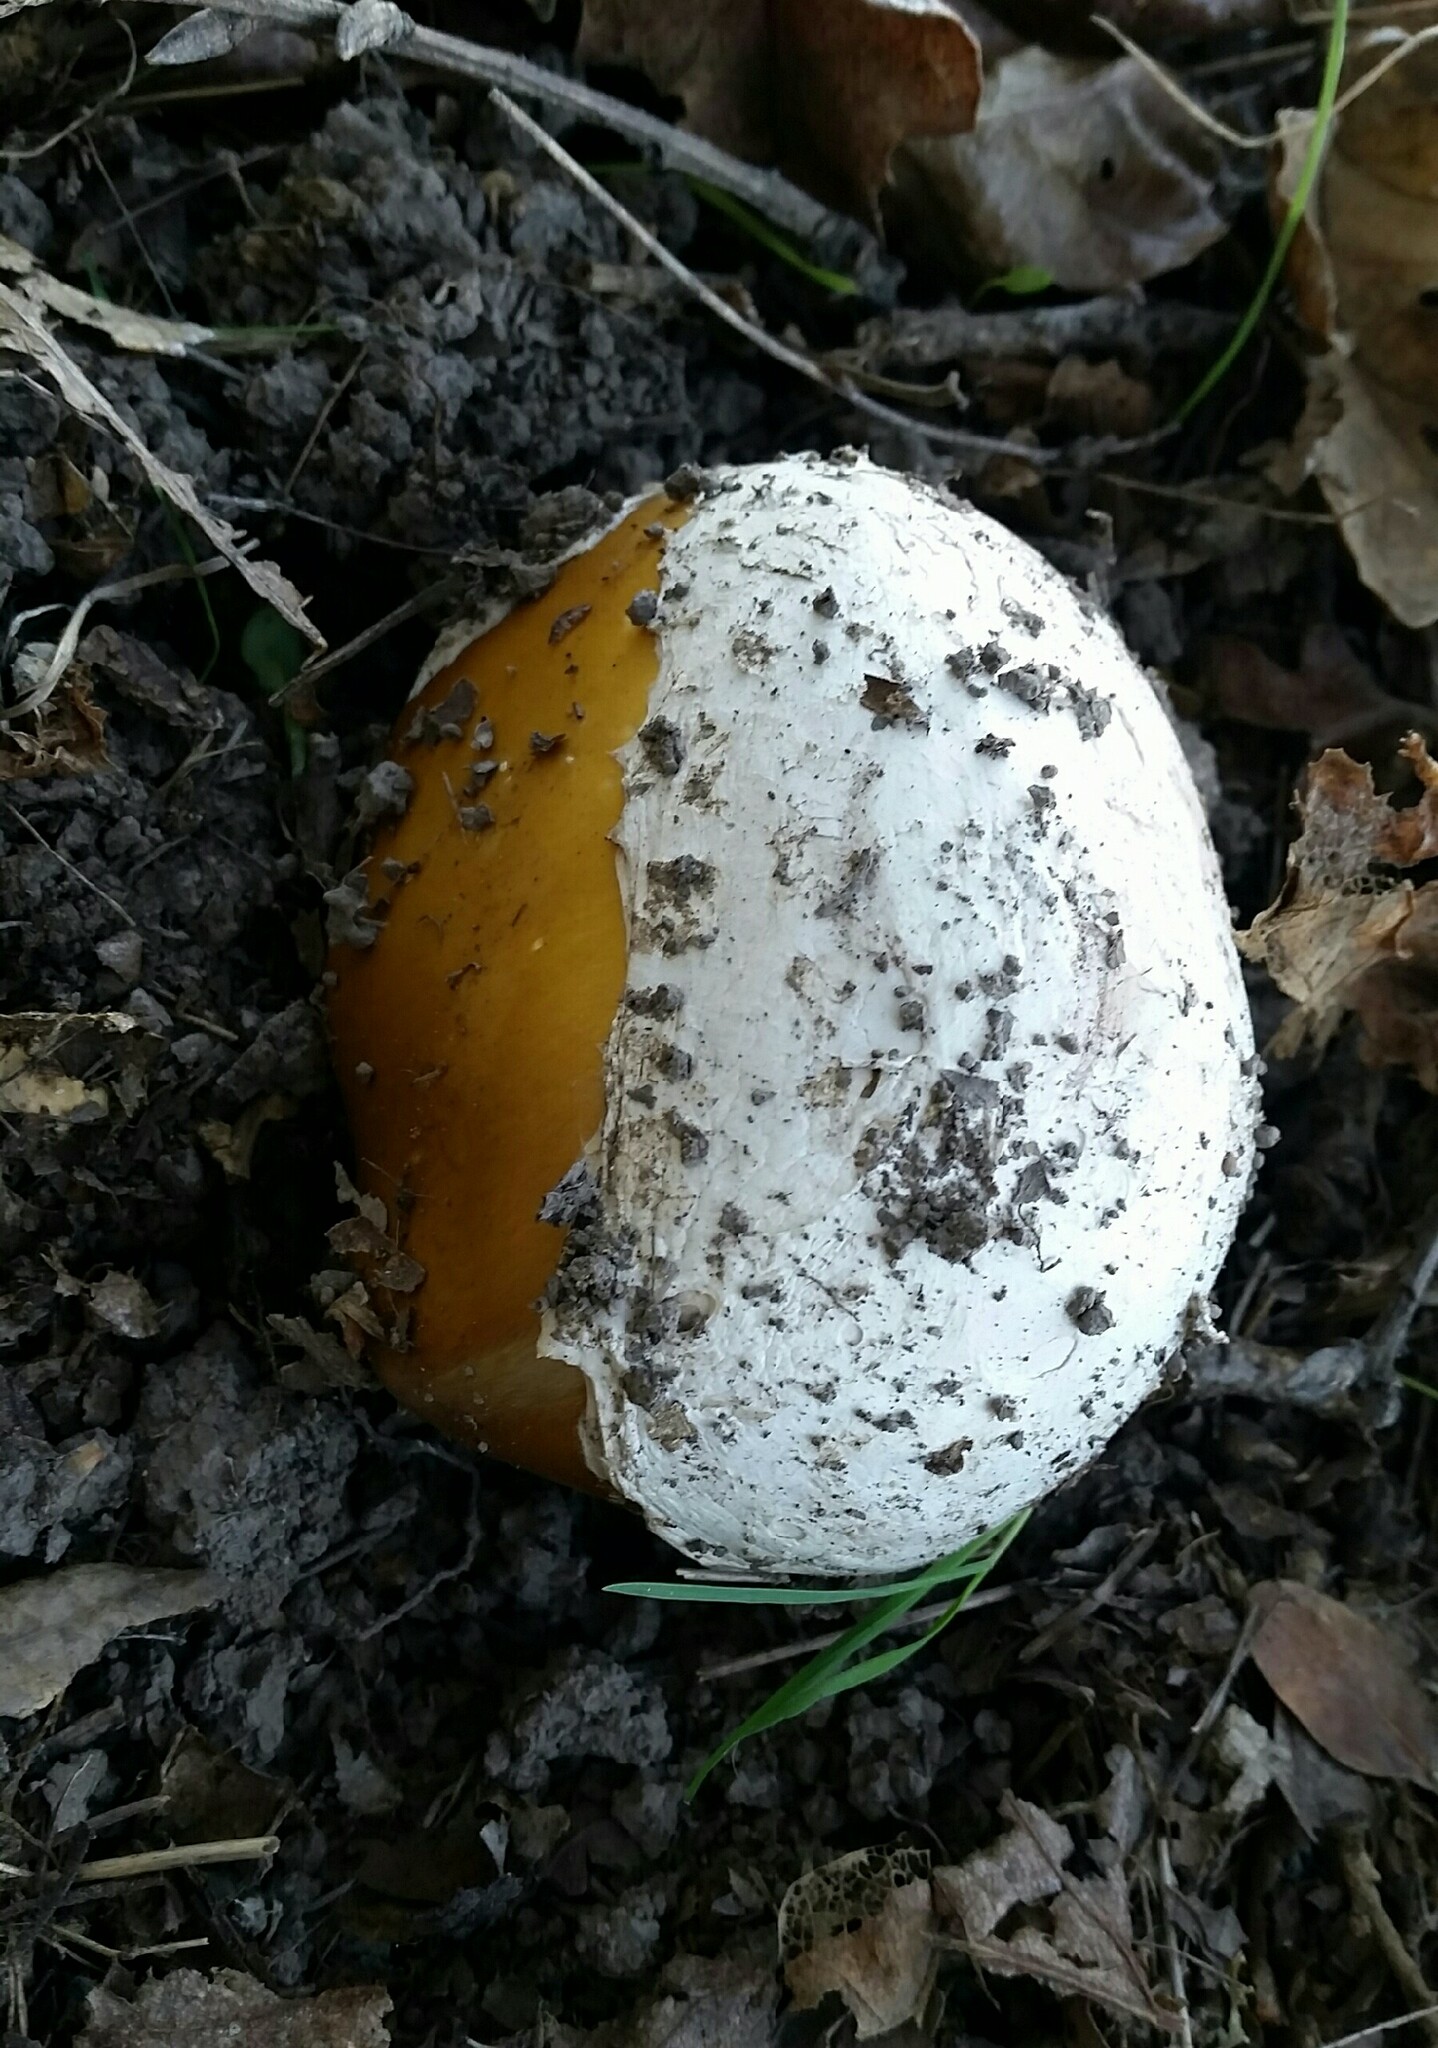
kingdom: Fungi
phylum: Basidiomycota
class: Agaricomycetes
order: Agaricales
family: Amanitaceae
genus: Amanita
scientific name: Amanita calyptroderma
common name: Coccora
